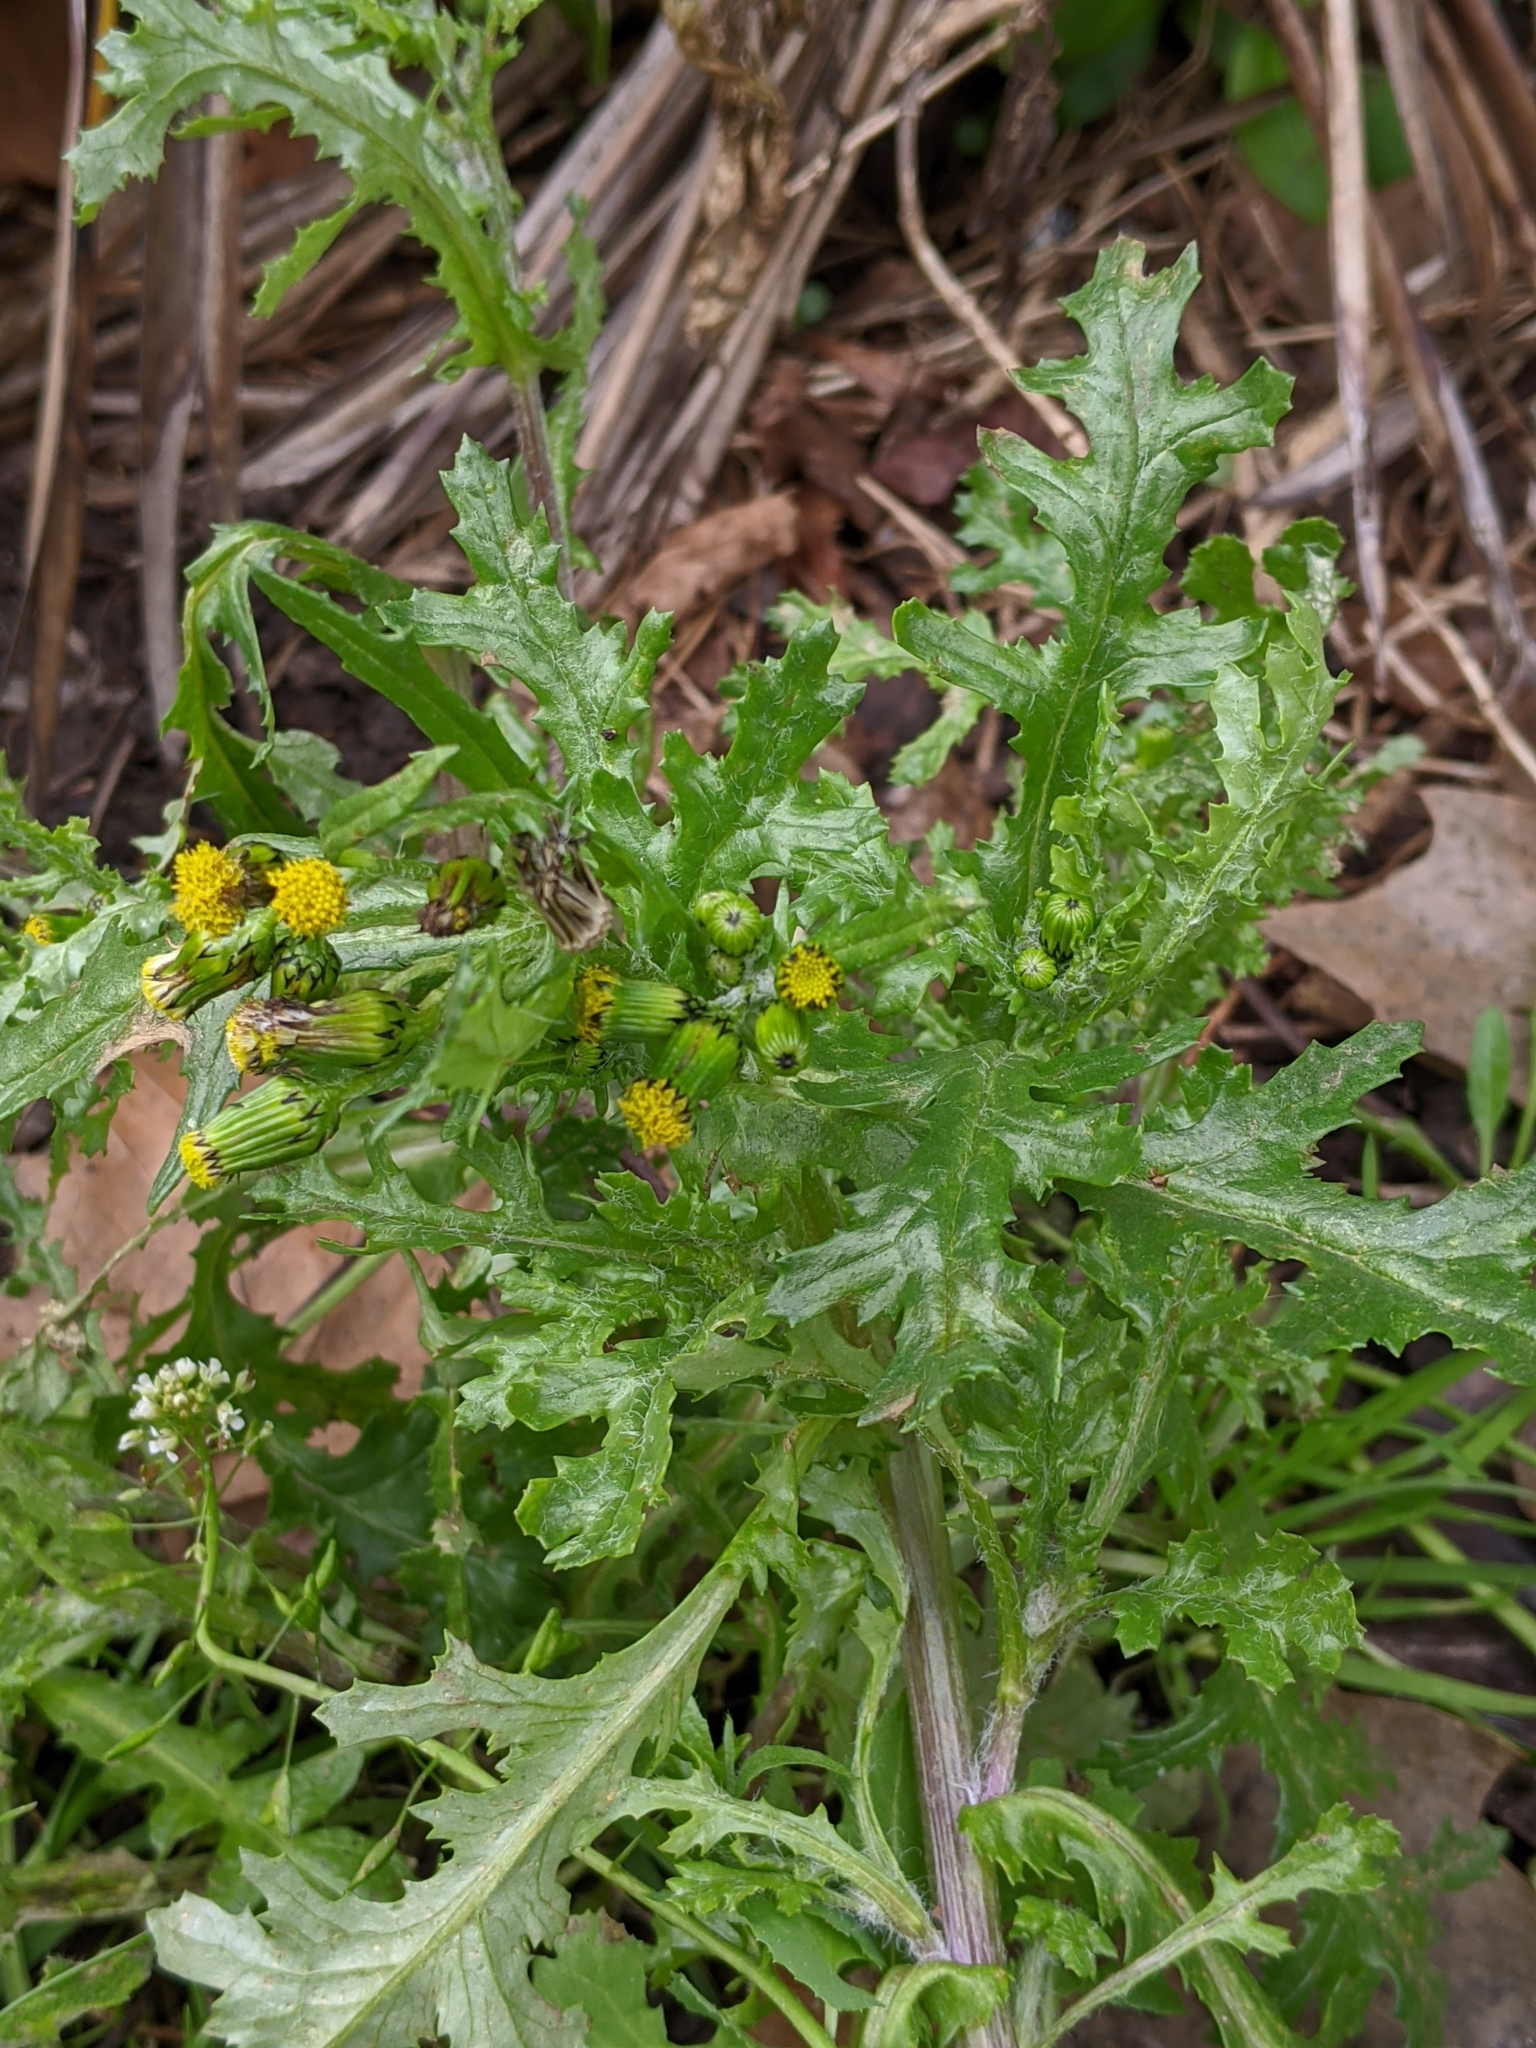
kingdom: Plantae
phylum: Tracheophyta
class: Magnoliopsida
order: Asterales
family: Asteraceae
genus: Senecio
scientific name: Senecio vulgaris
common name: Old-man-in-the-spring
